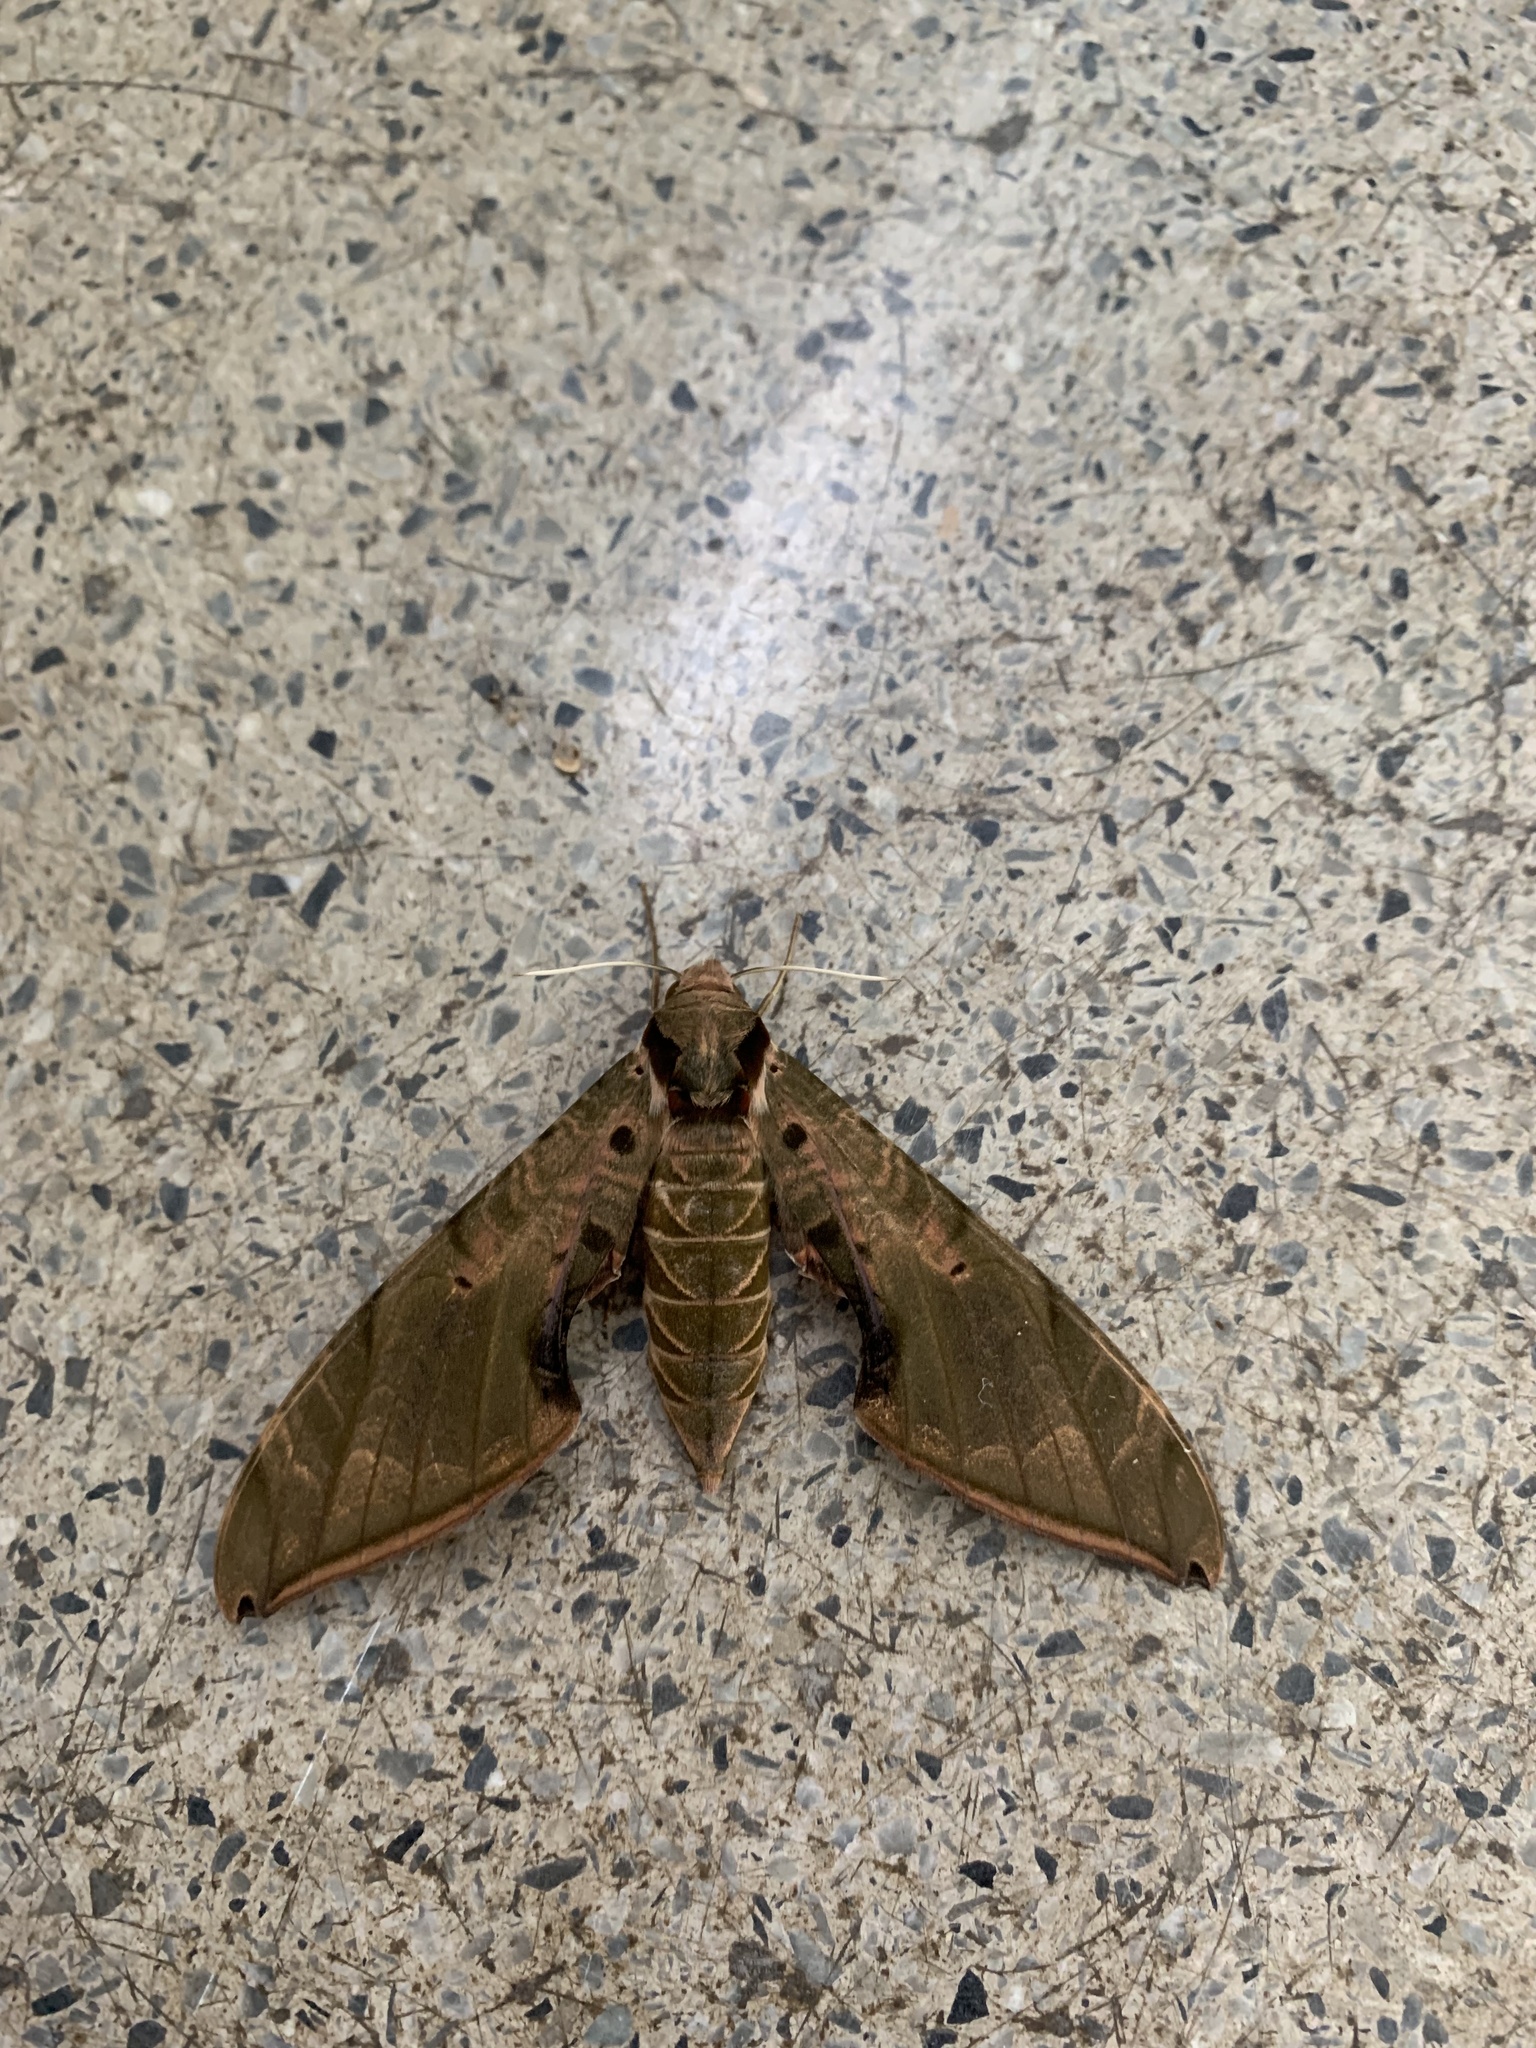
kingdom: Animalia
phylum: Arthropoda
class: Insecta
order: Lepidoptera
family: Sphingidae
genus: Protambulyx
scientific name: Protambulyx strigilis
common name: Streaked sphinx
